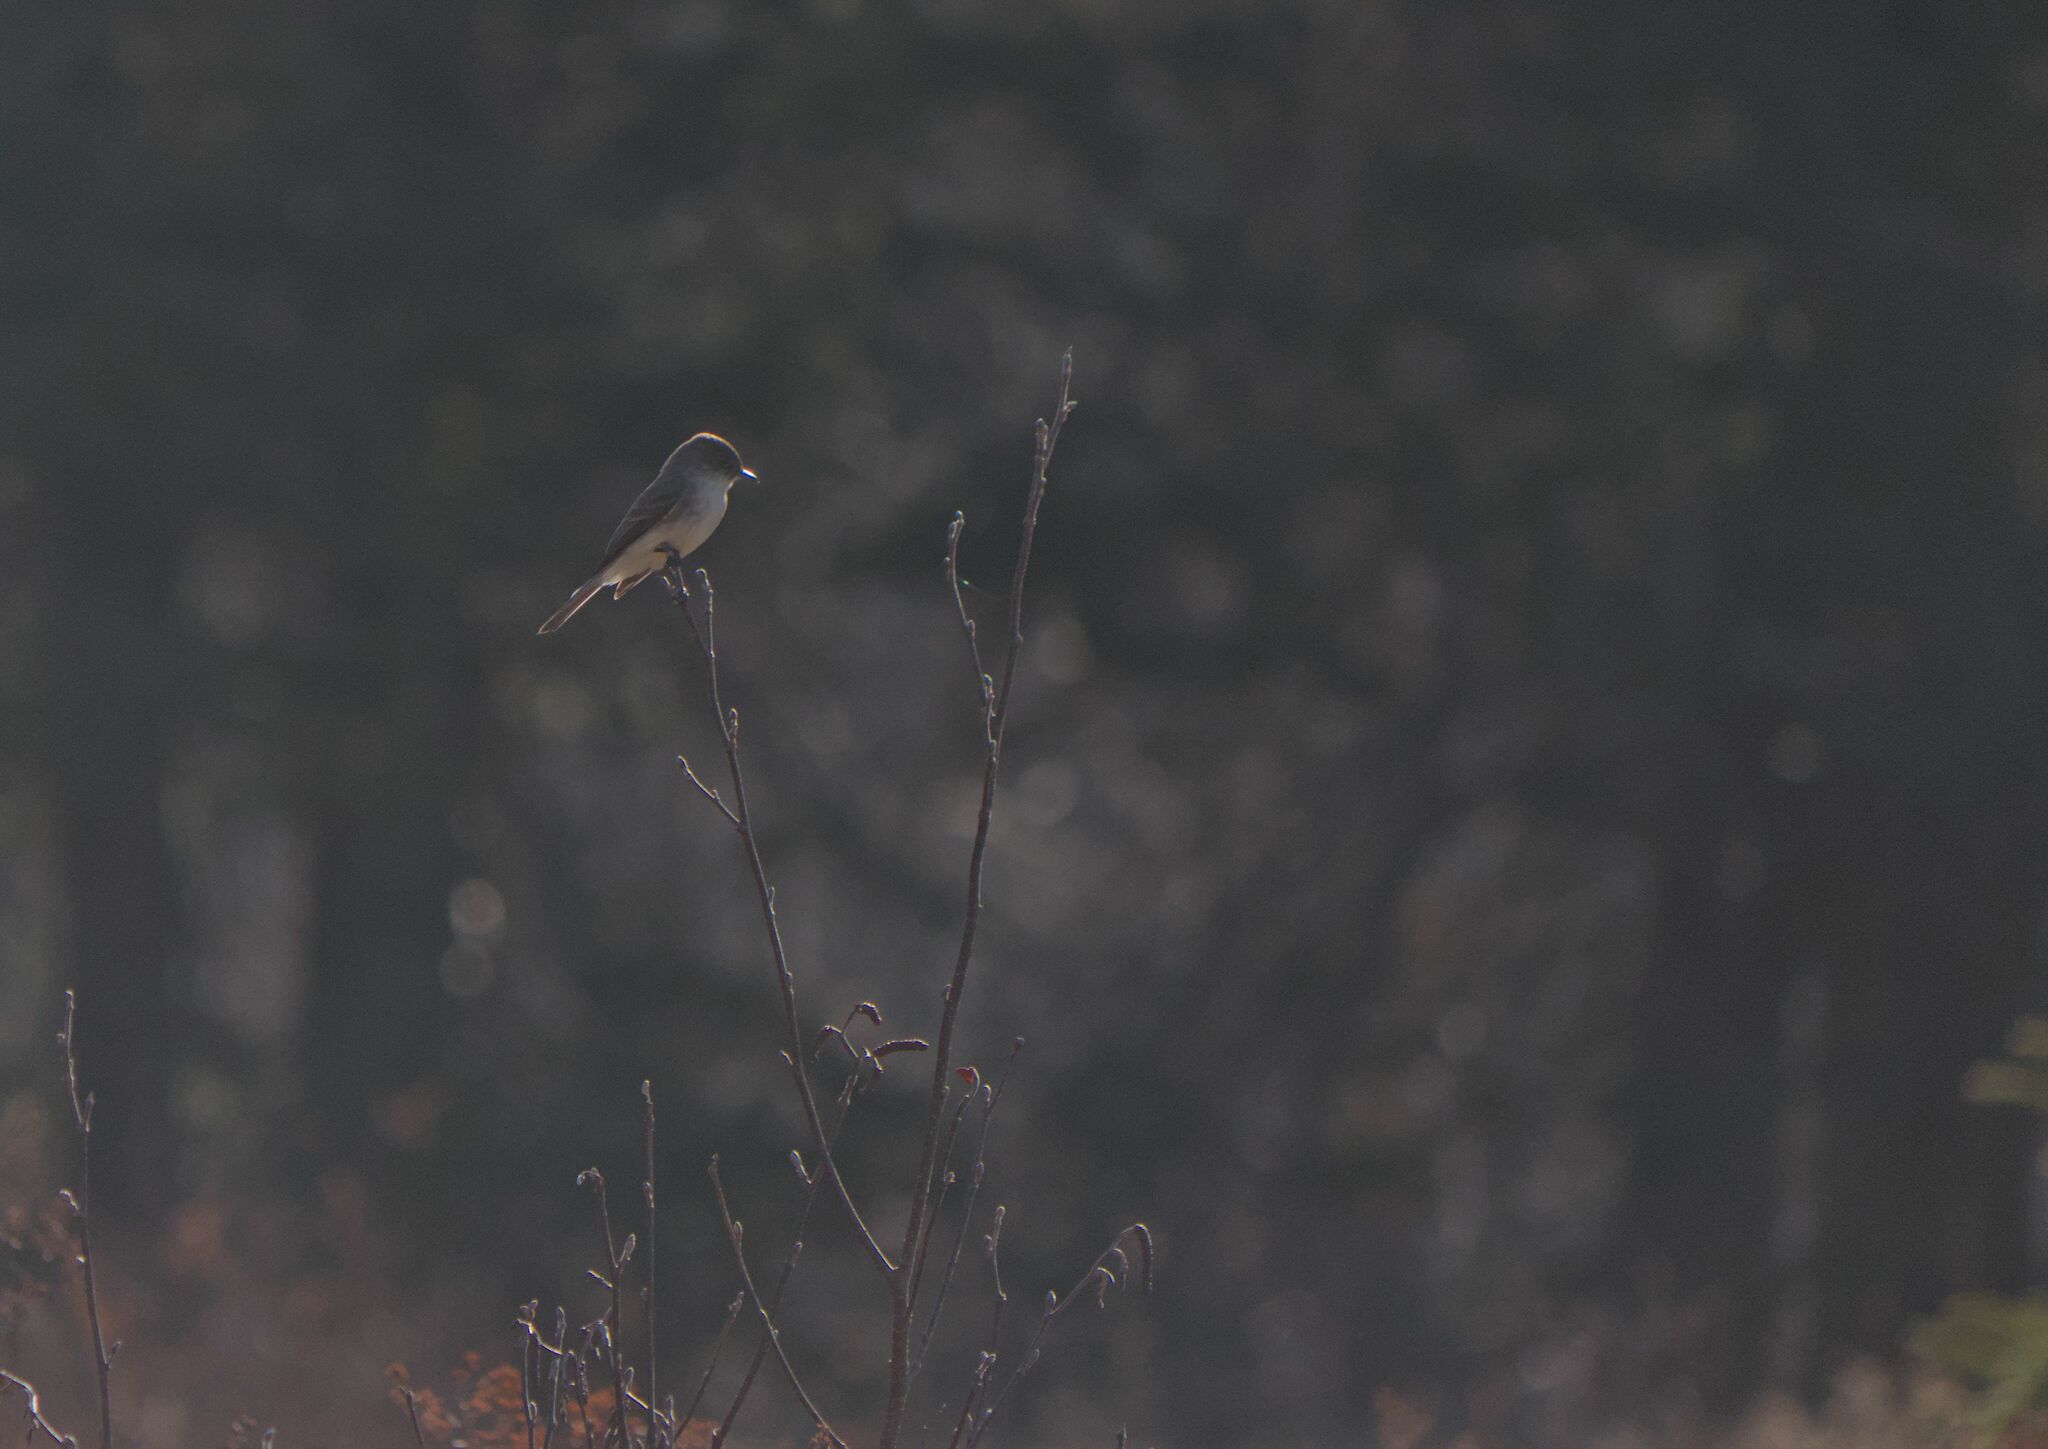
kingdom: Animalia
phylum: Chordata
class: Aves
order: Passeriformes
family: Tyrannidae
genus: Sayornis
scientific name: Sayornis phoebe
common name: Eastern phoebe
